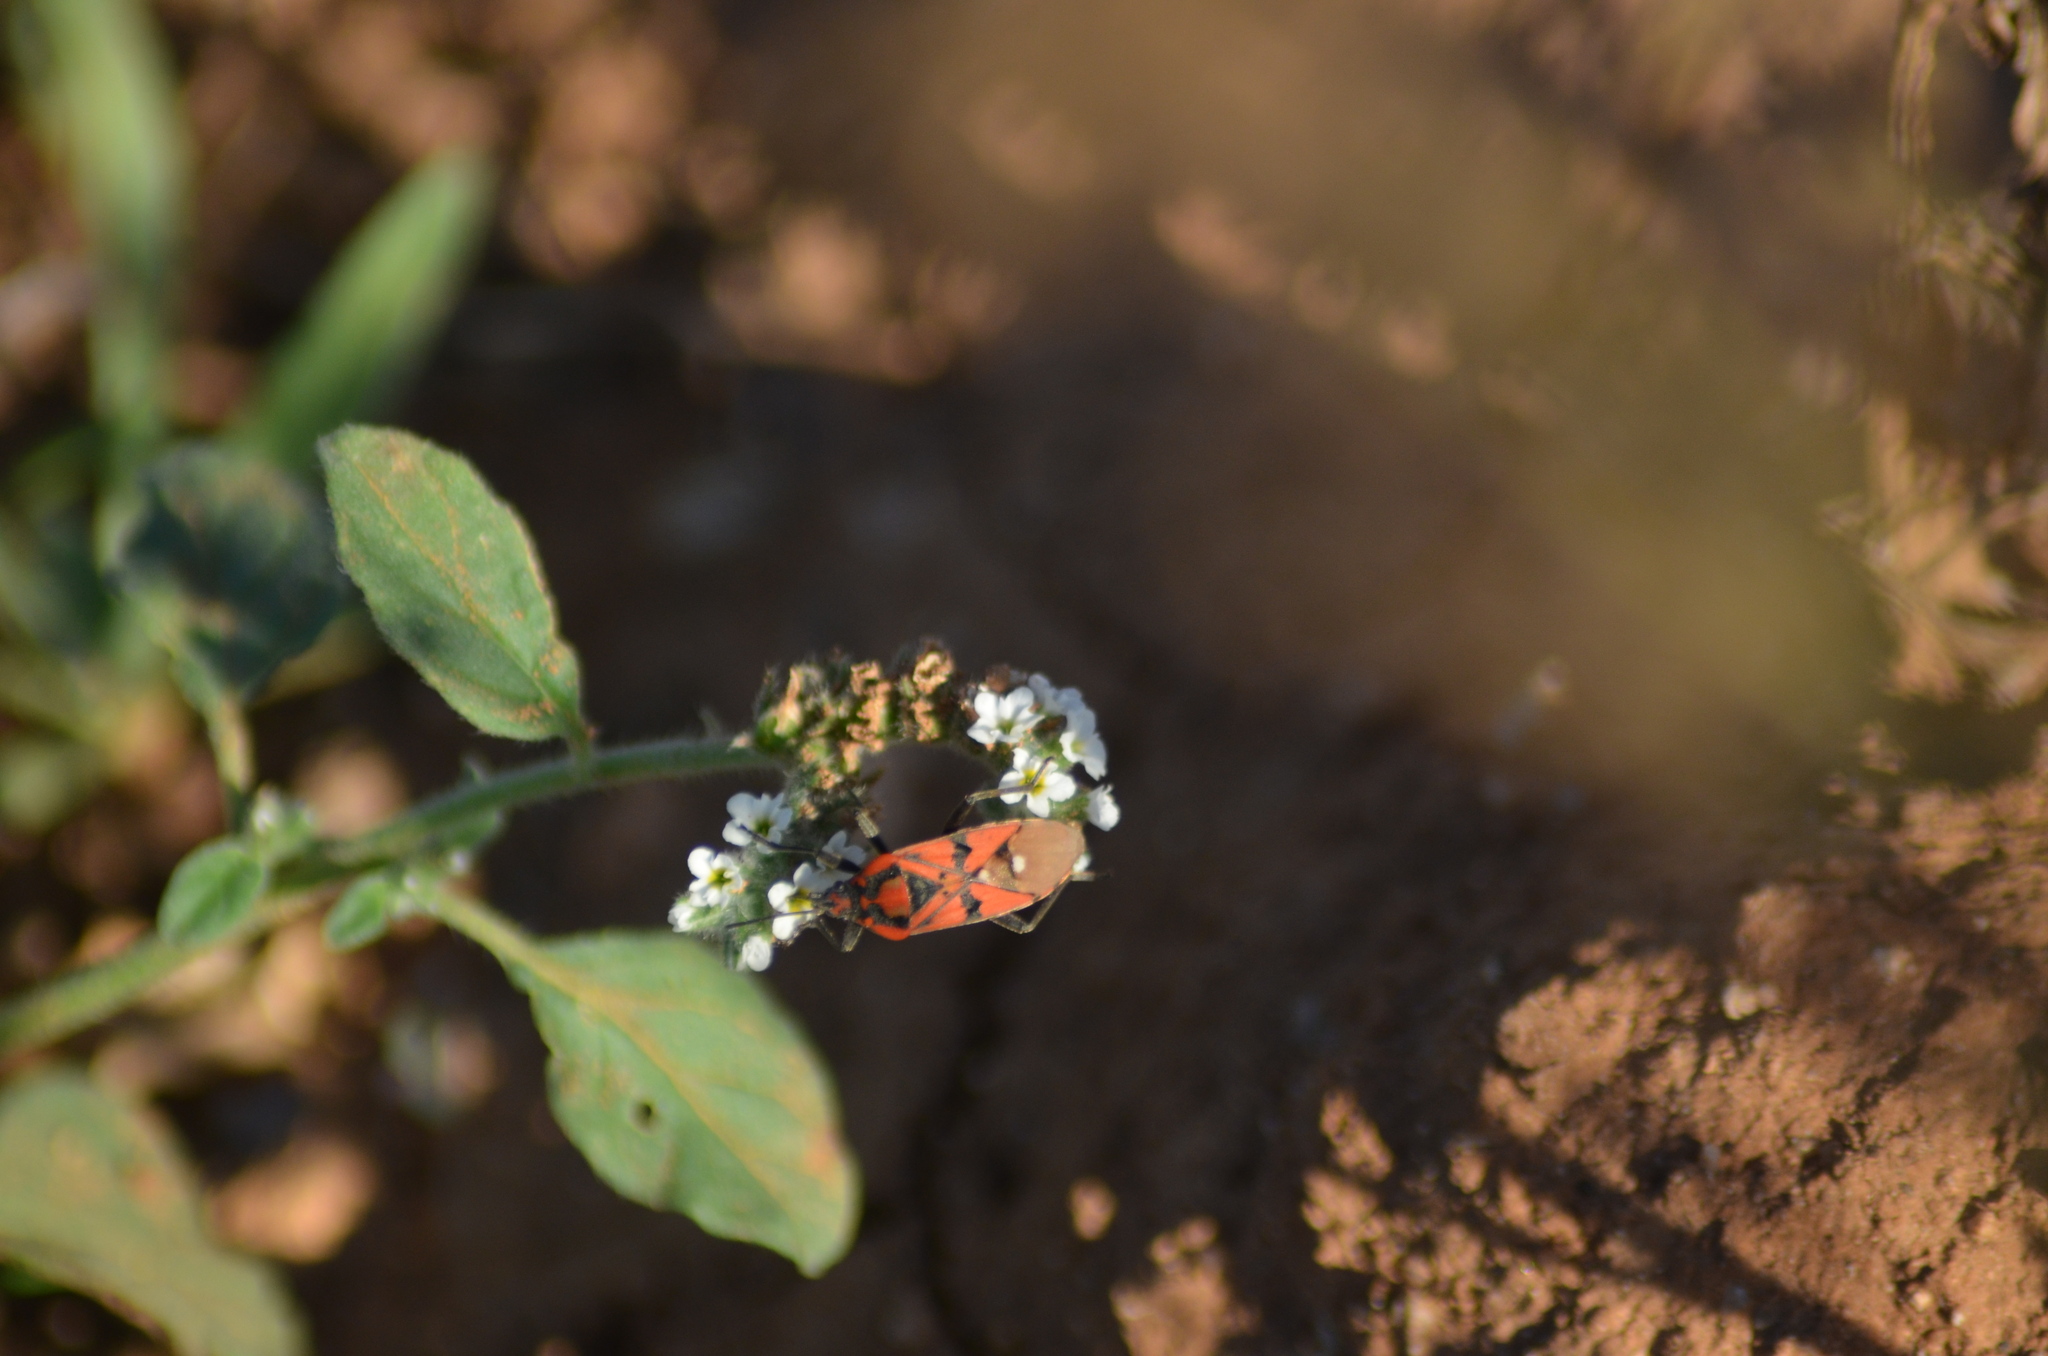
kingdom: Animalia
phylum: Arthropoda
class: Insecta
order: Hemiptera
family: Lygaeidae
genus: Spilostethus
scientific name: Spilostethus pandurus
